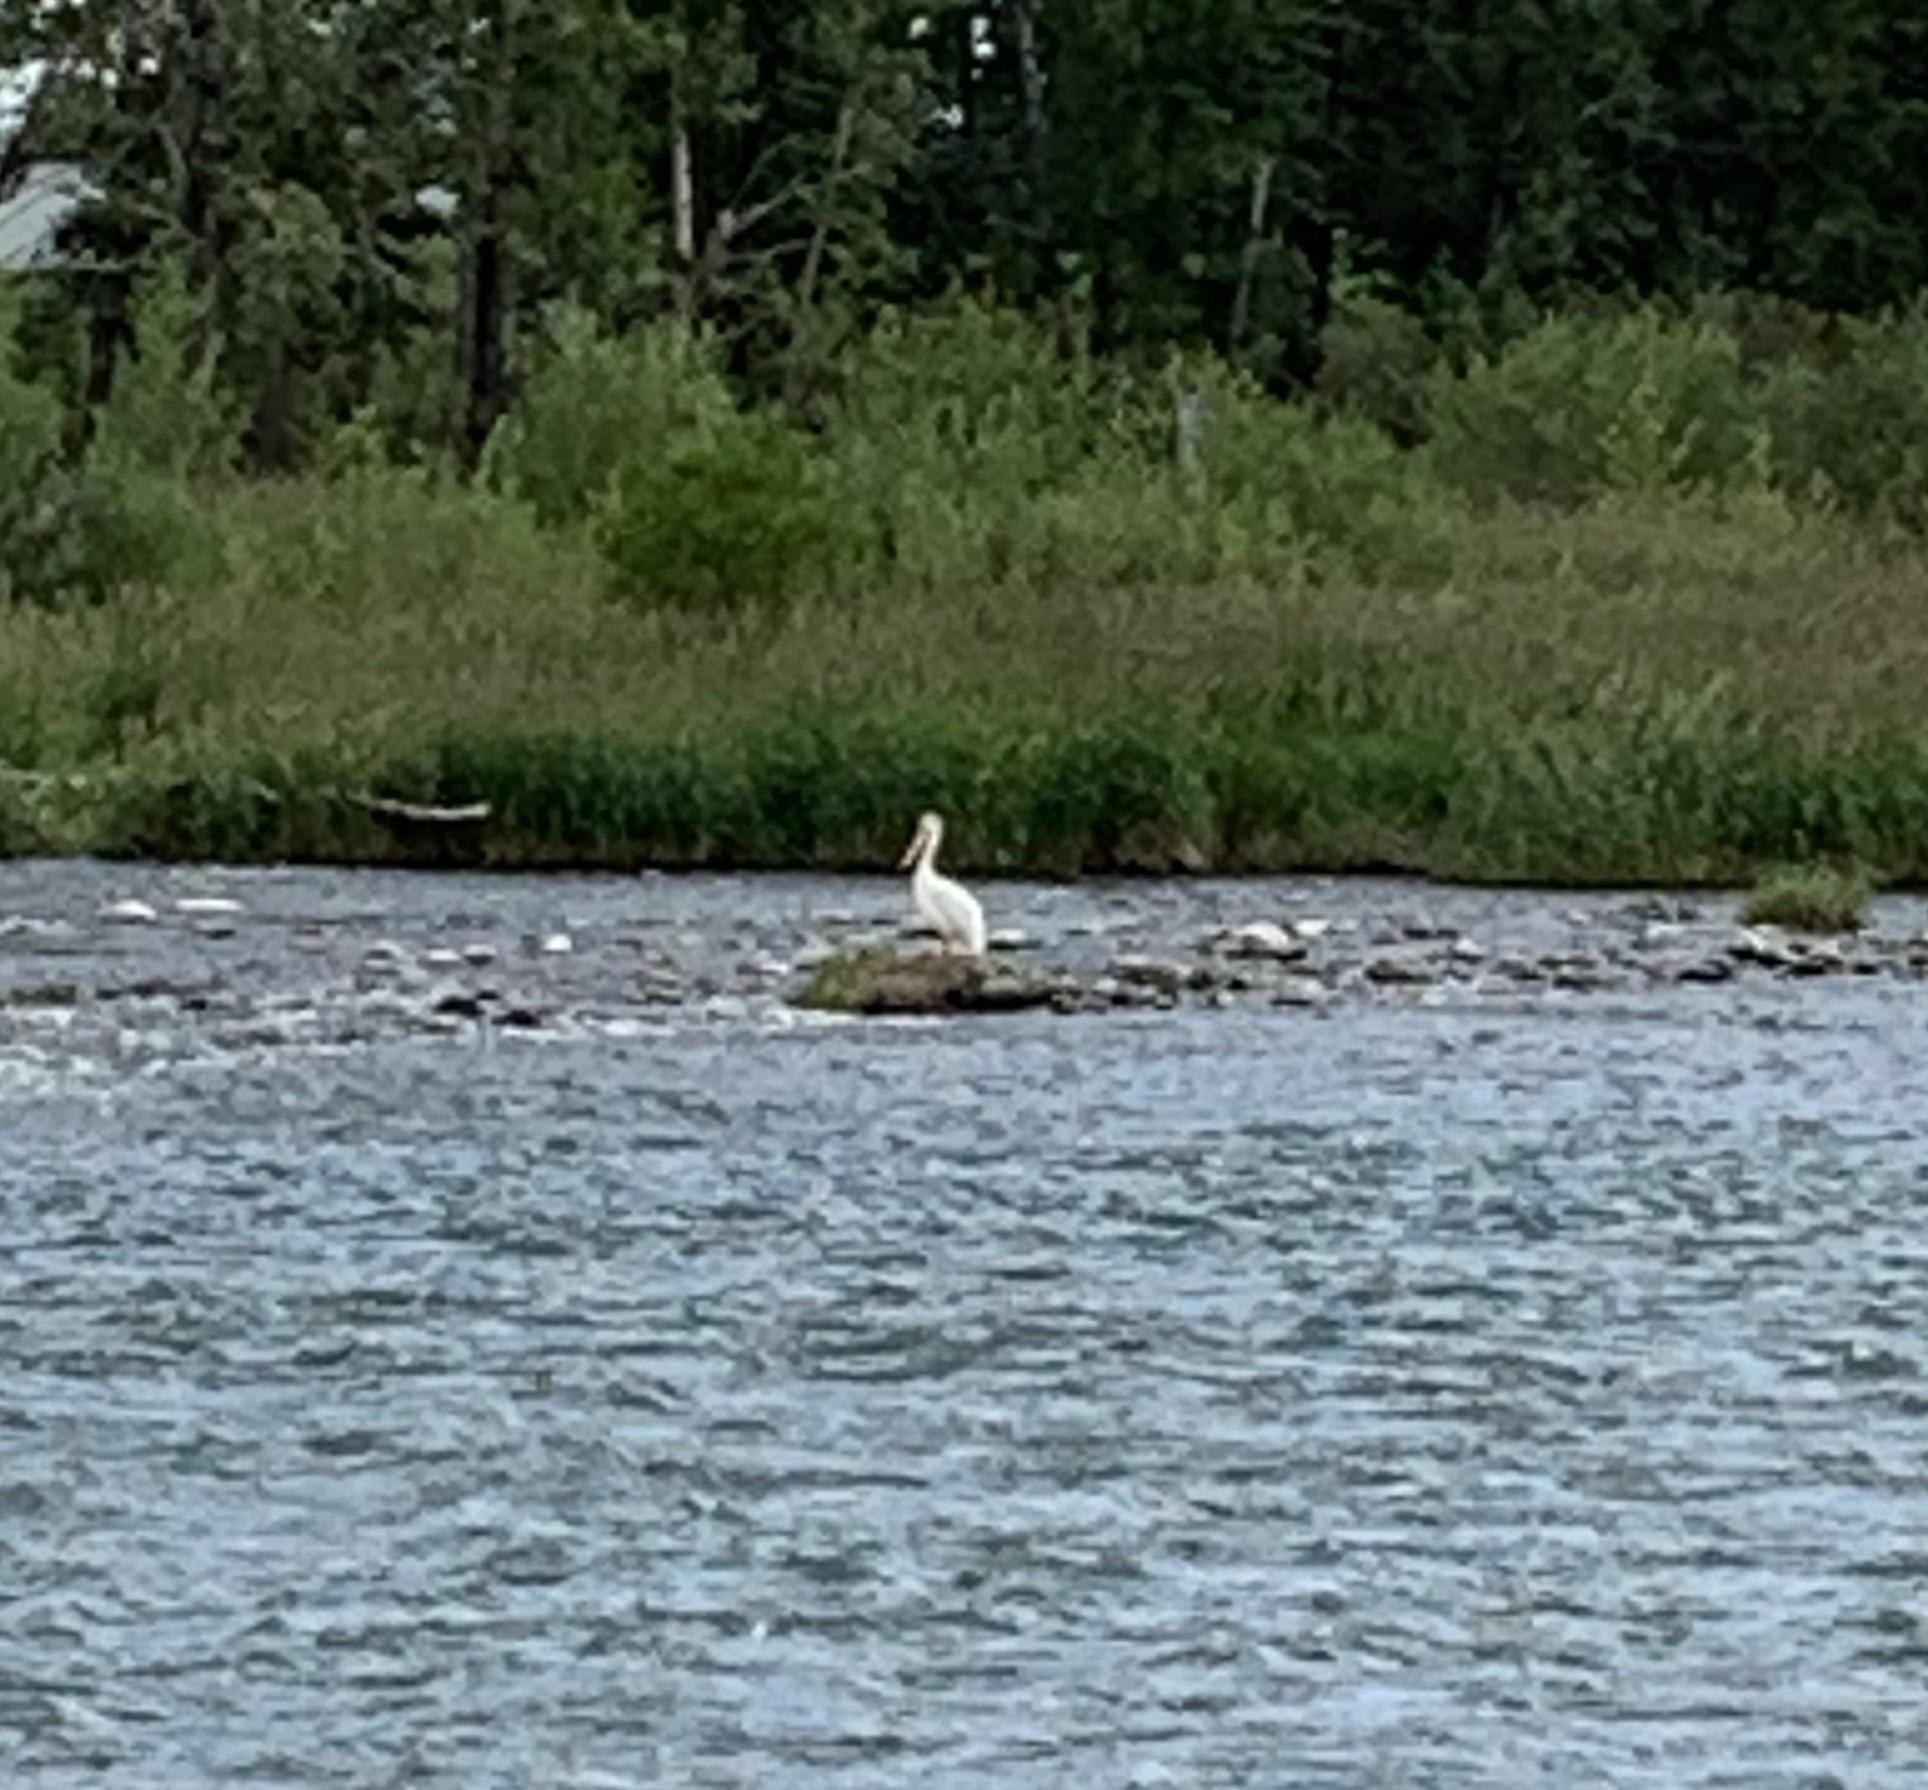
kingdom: Animalia
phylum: Chordata
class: Aves
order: Pelecaniformes
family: Pelecanidae
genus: Pelecanus
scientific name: Pelecanus erythrorhynchos
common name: American white pelican
